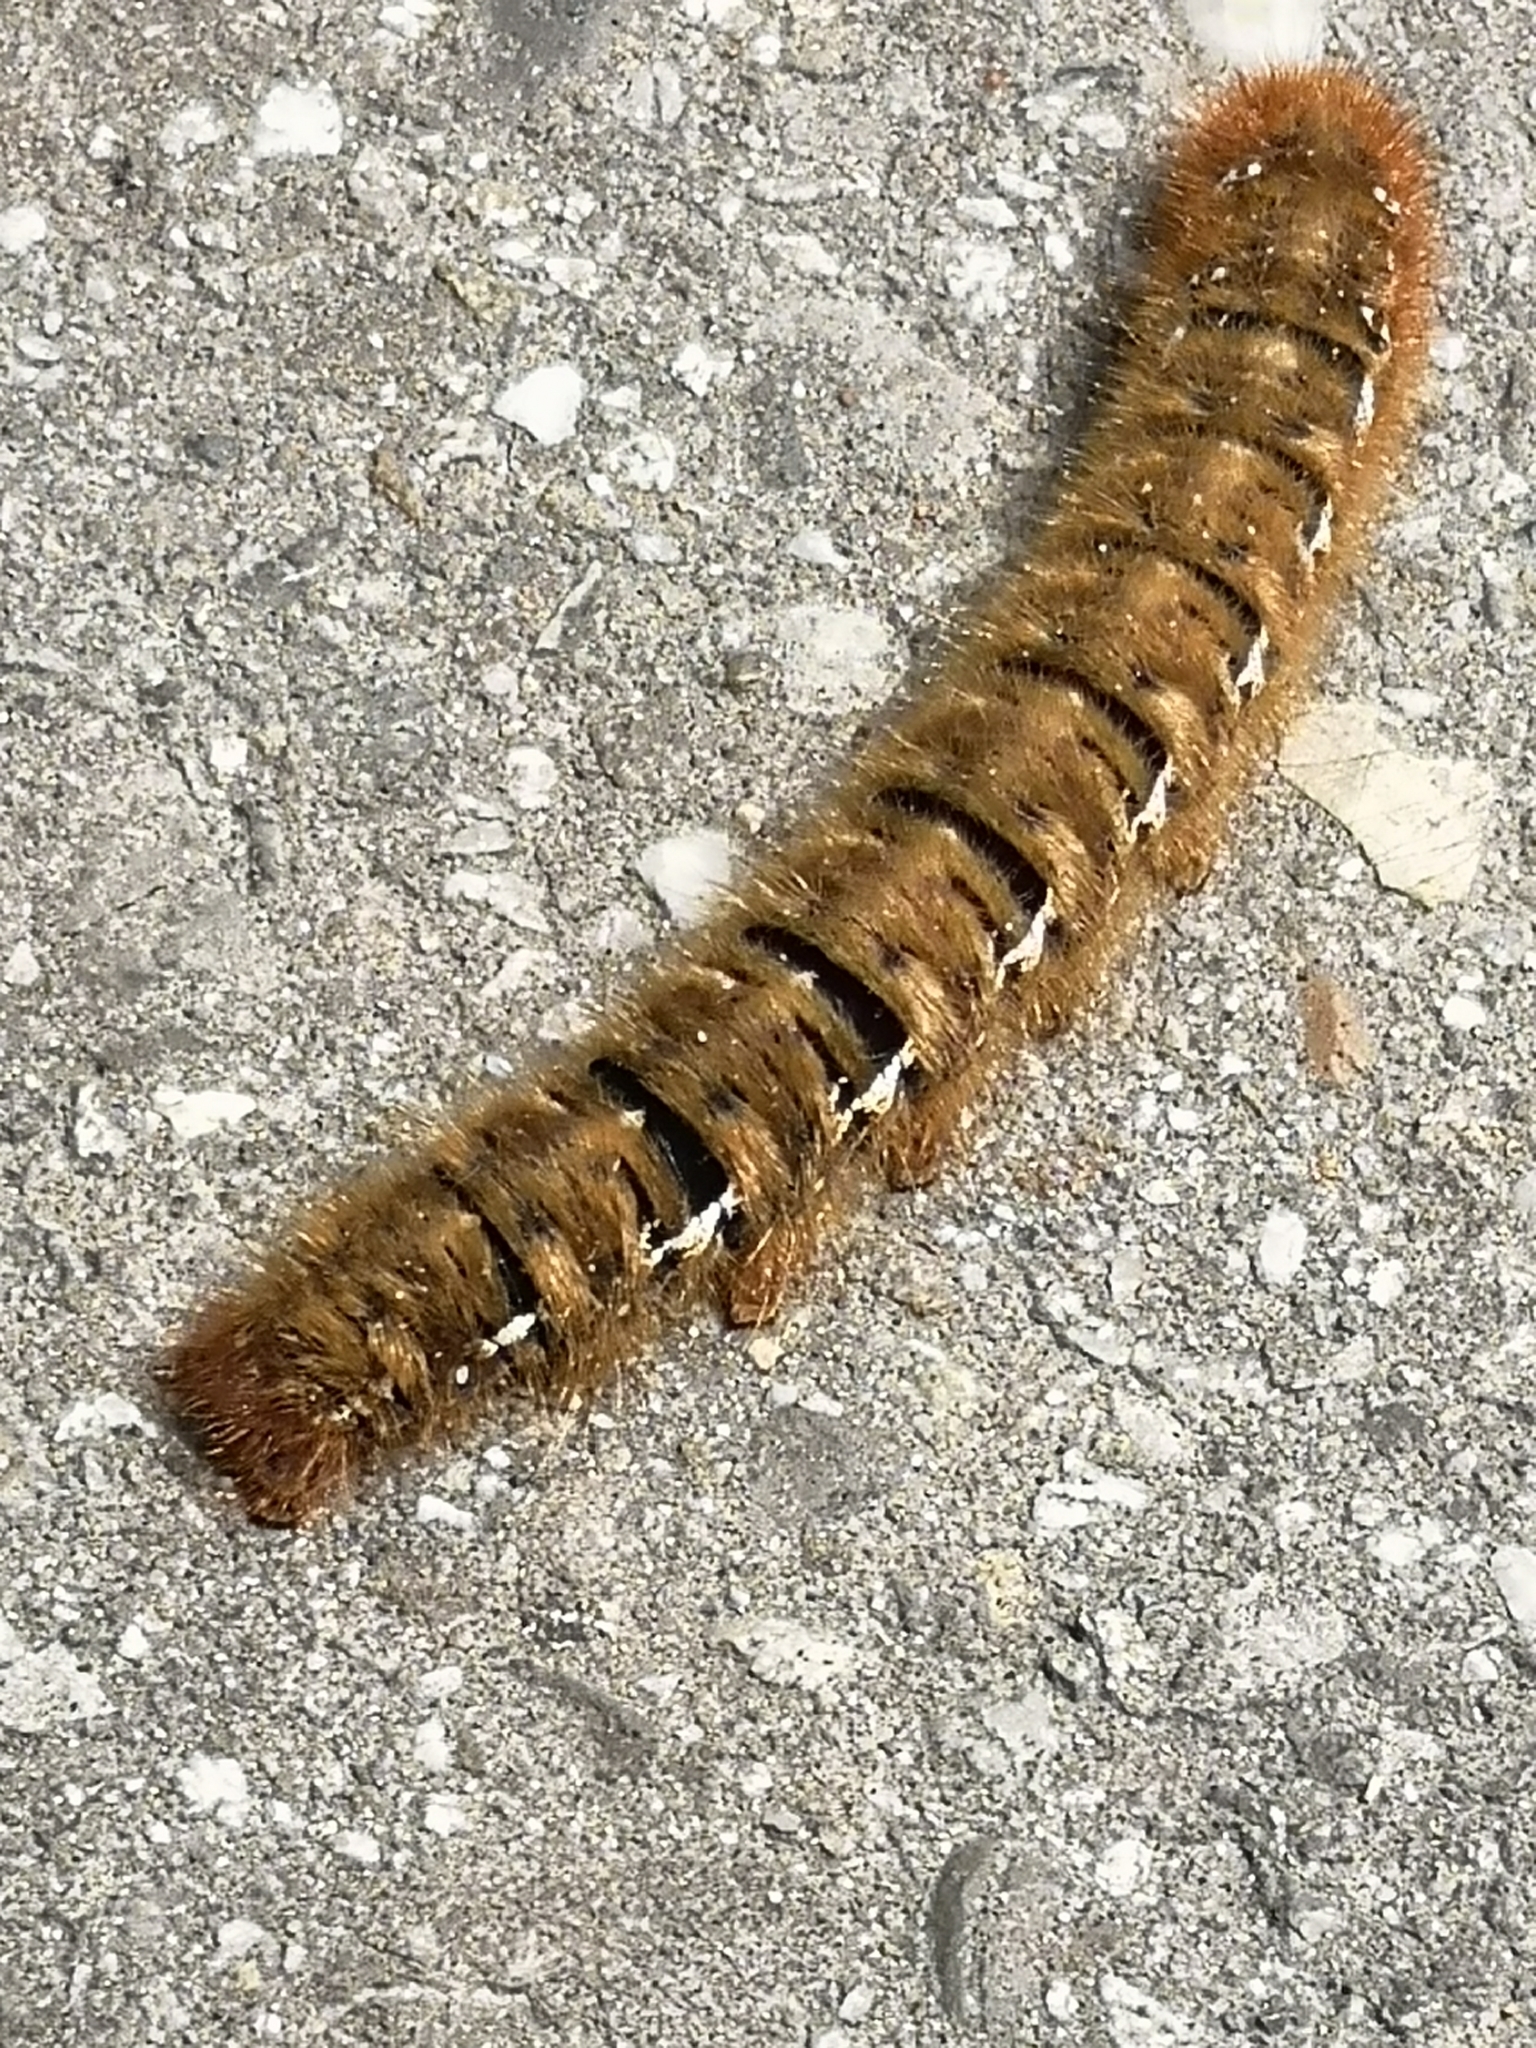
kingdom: Animalia
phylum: Arthropoda
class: Insecta
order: Lepidoptera
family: Lasiocampidae
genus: Lasiocampa
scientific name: Lasiocampa quercus
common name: Oak eggar
